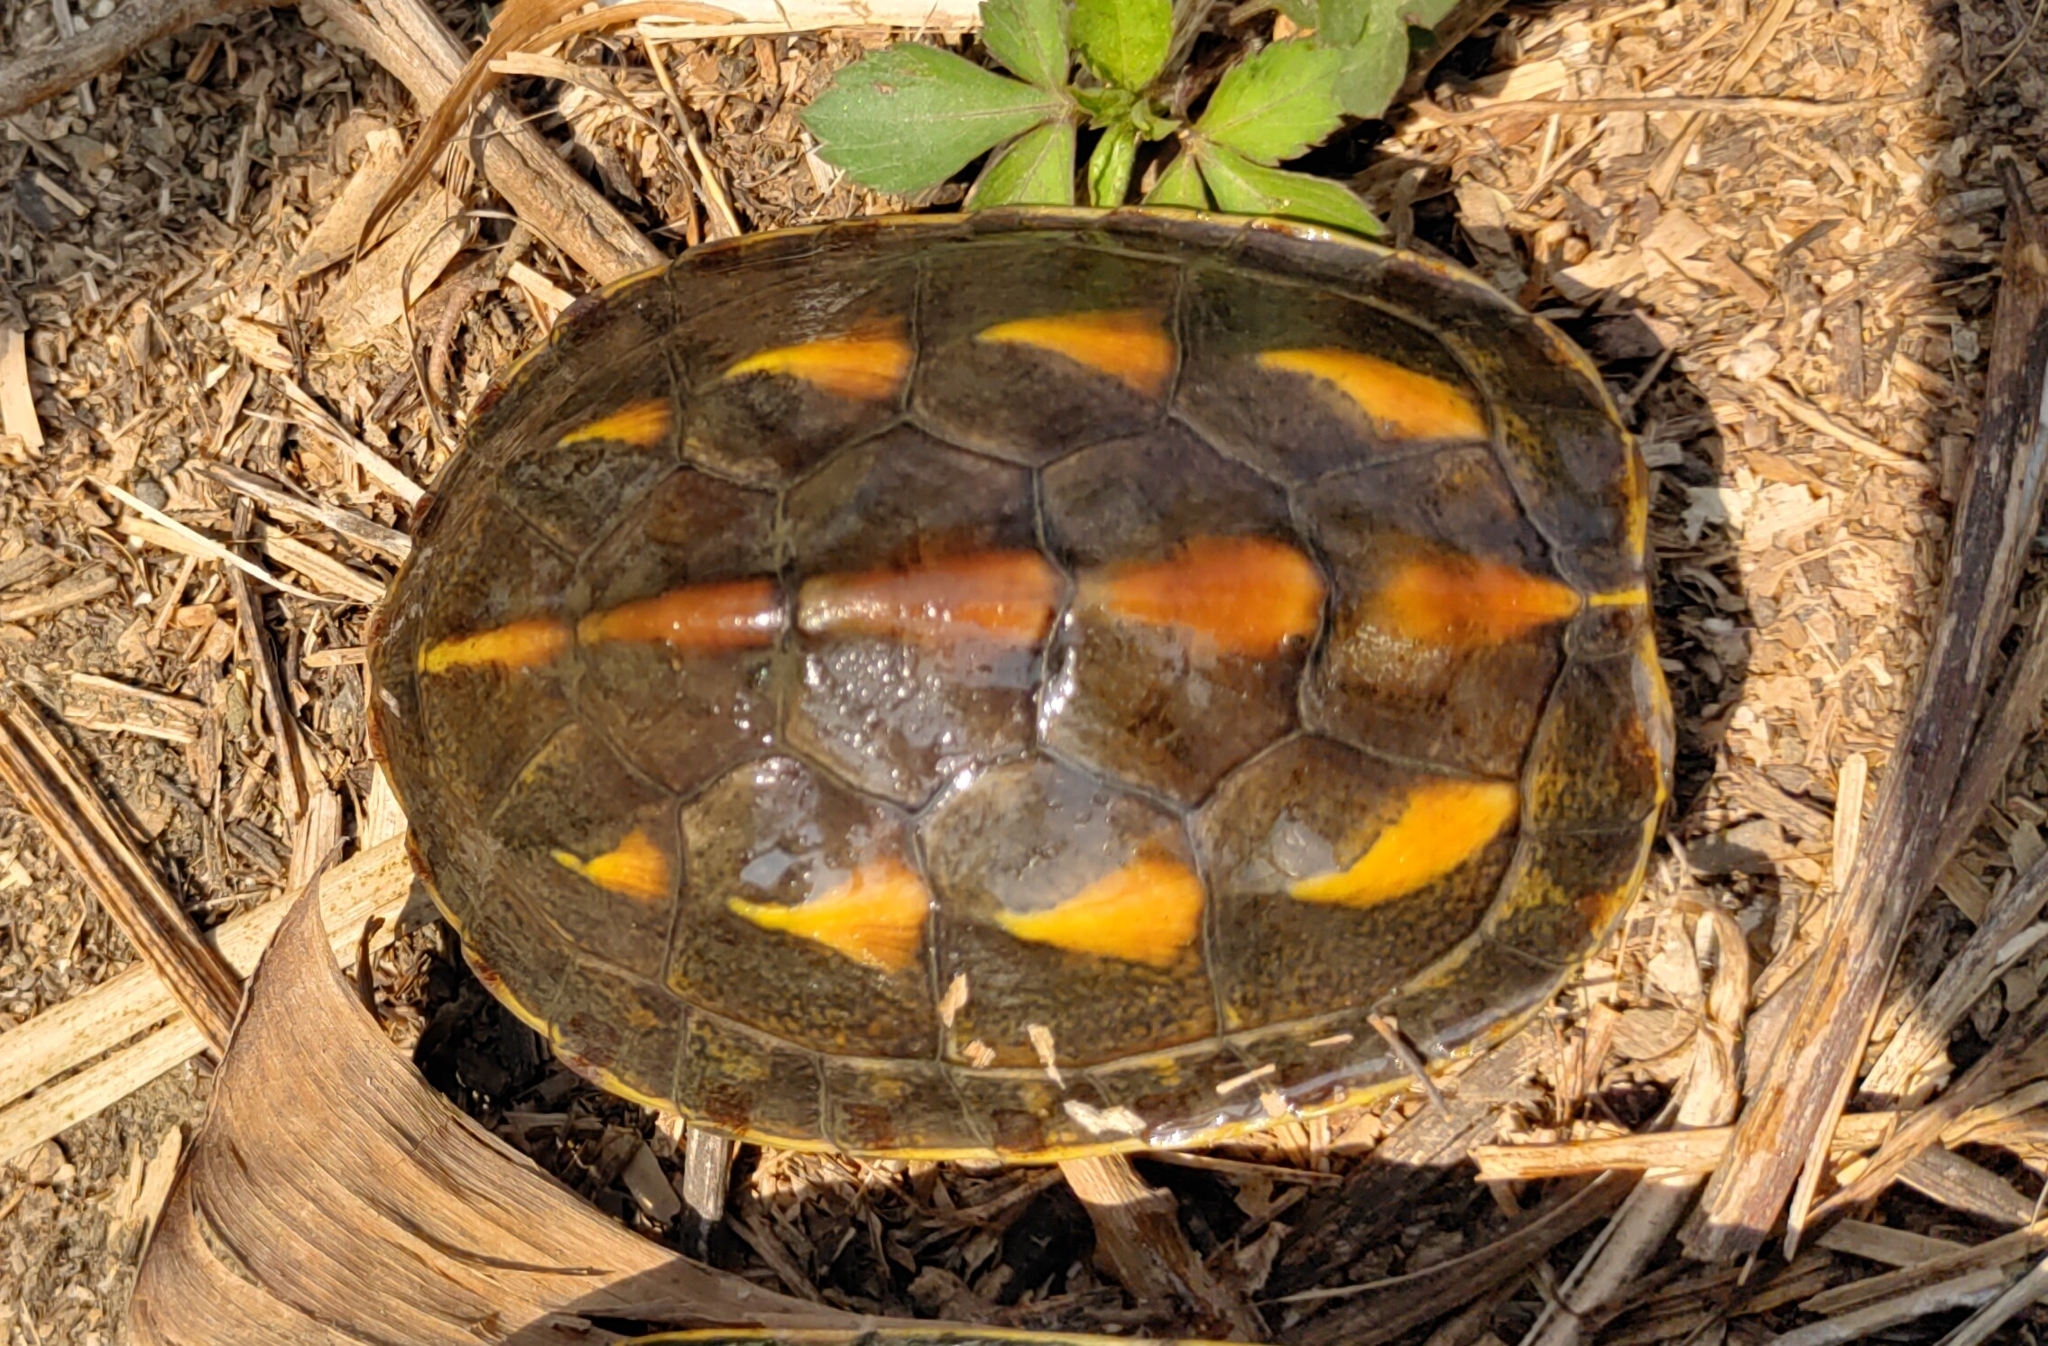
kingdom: Animalia
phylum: Chordata
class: Testudines
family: Geoemydidae
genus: Mauremys
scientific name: Mauremys sinensis
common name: Chinese stripe-necked turtle
